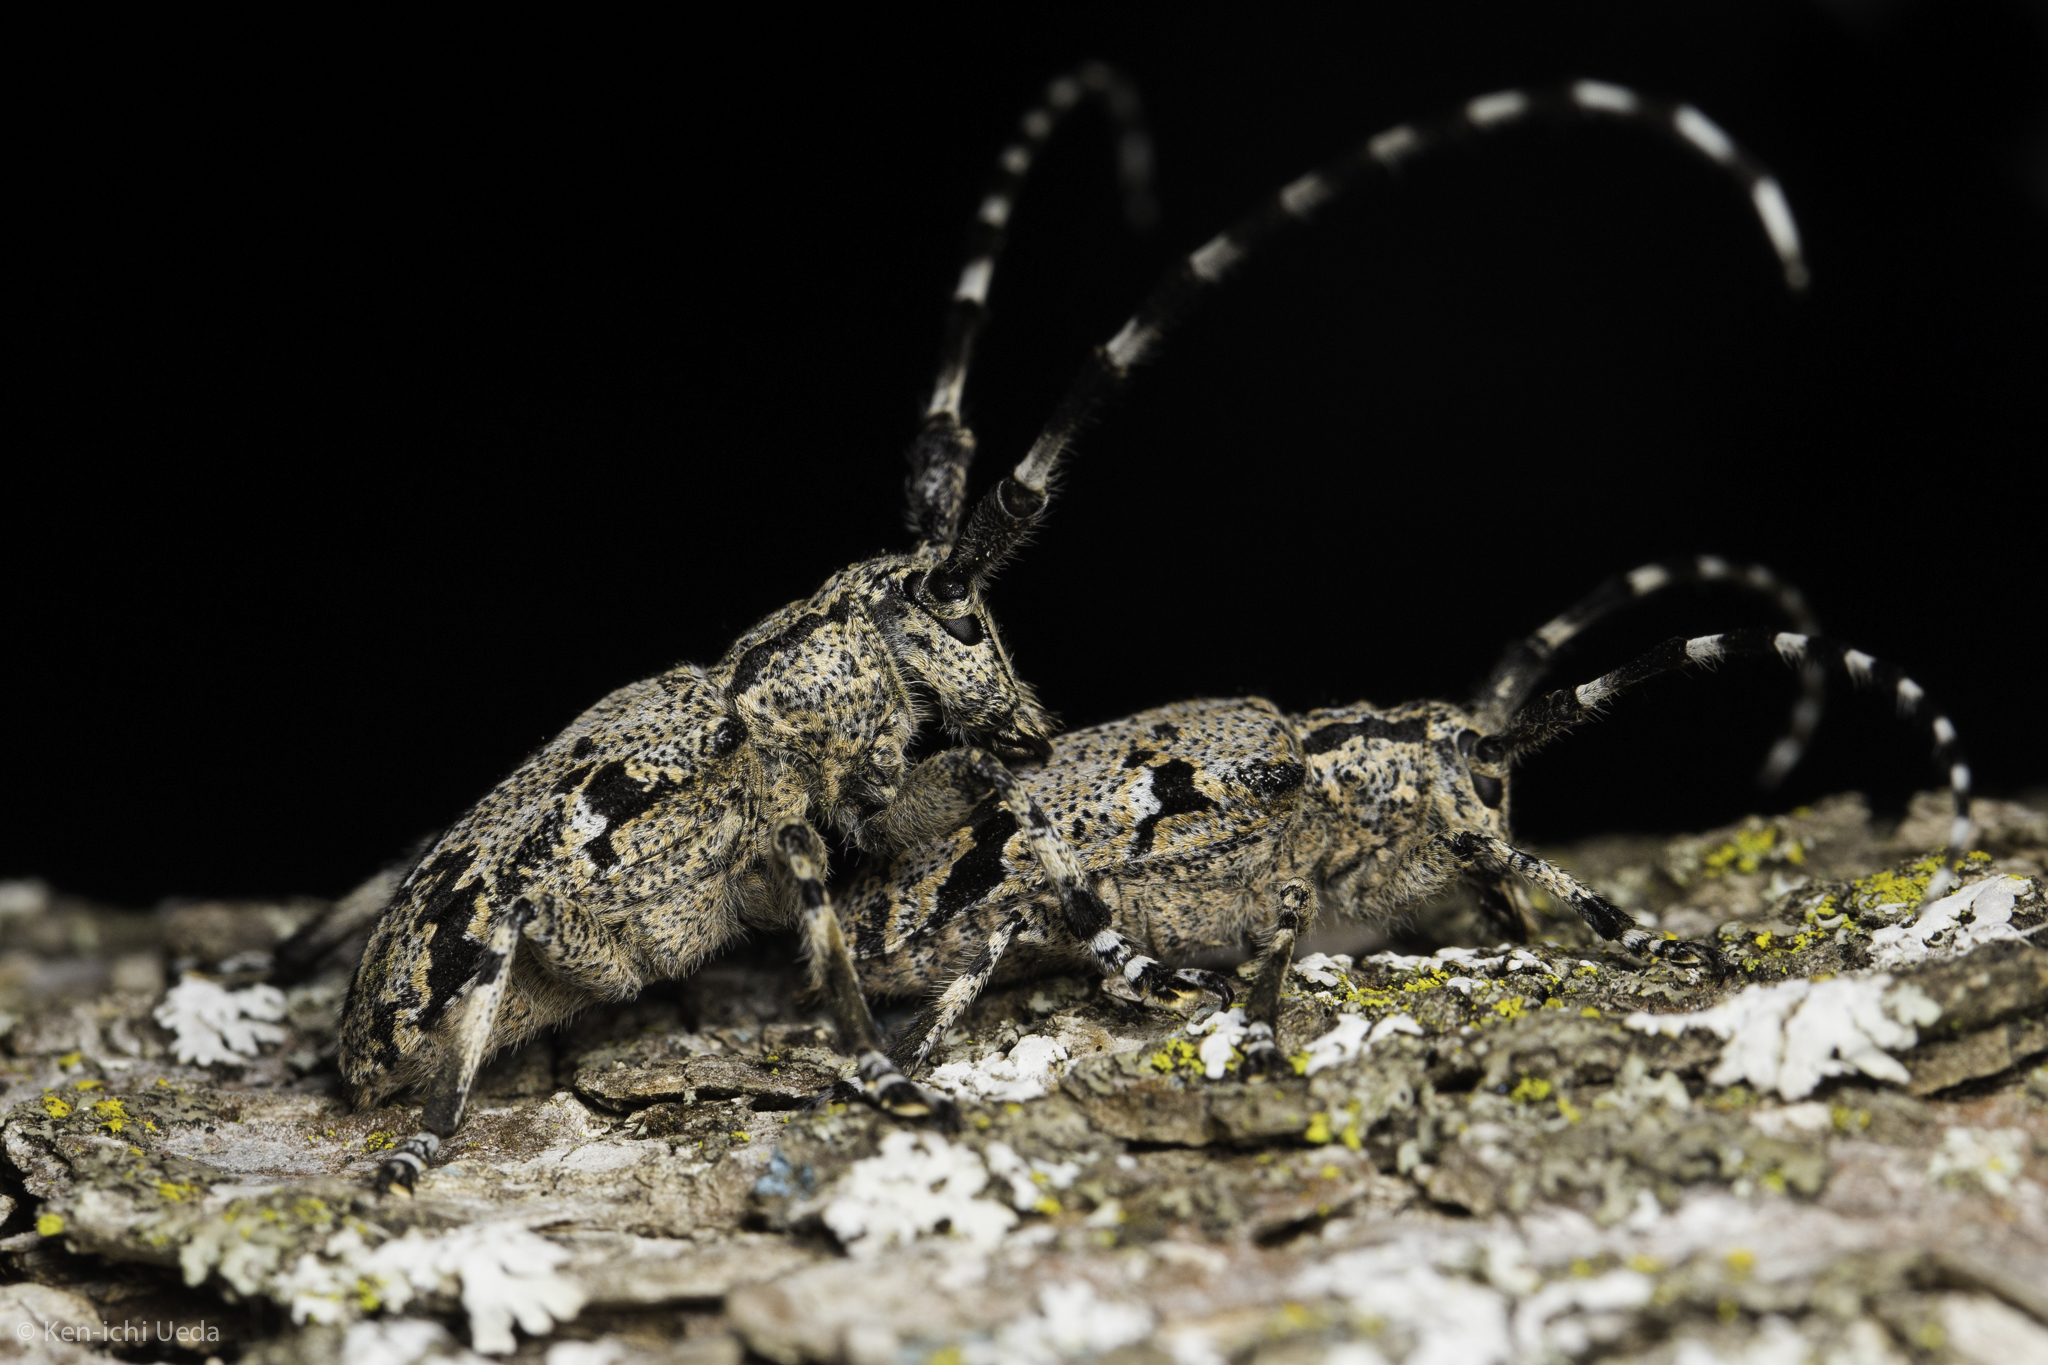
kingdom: Animalia
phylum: Arthropoda
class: Insecta
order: Coleoptera
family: Cerambycidae
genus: Synaphaeta
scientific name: Synaphaeta guexi
